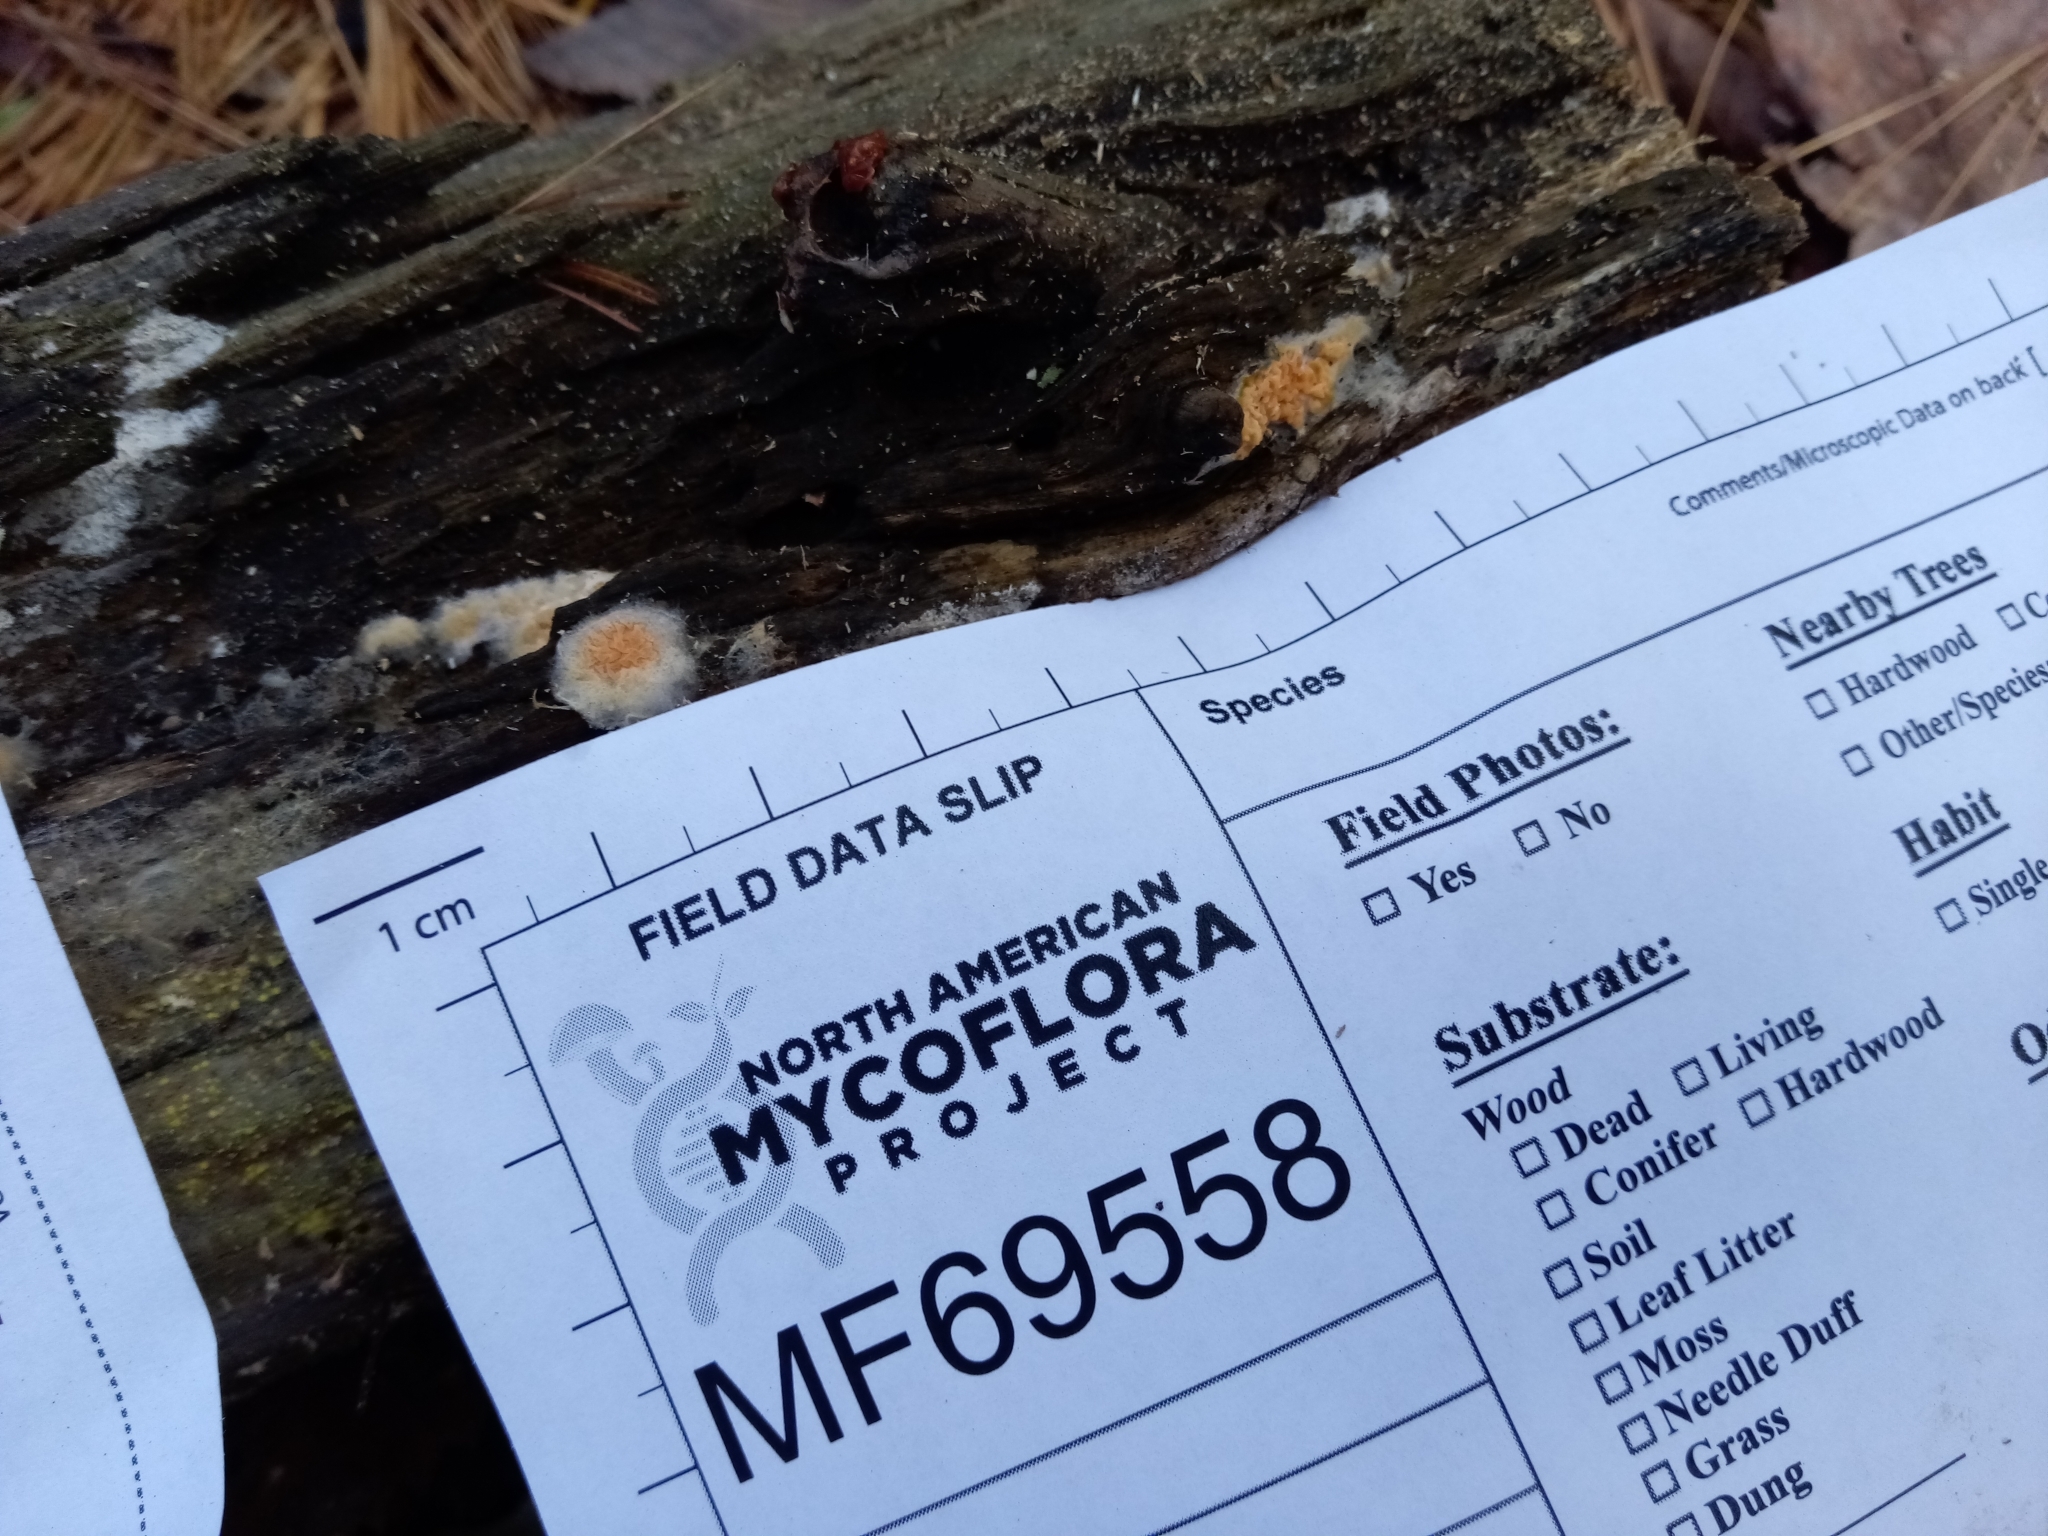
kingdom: Fungi
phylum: Basidiomycota
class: Agaricomycetes
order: Boletales
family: Hygrophoropsidaceae
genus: Leucogyrophana
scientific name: Leucogyrophana mollusca
